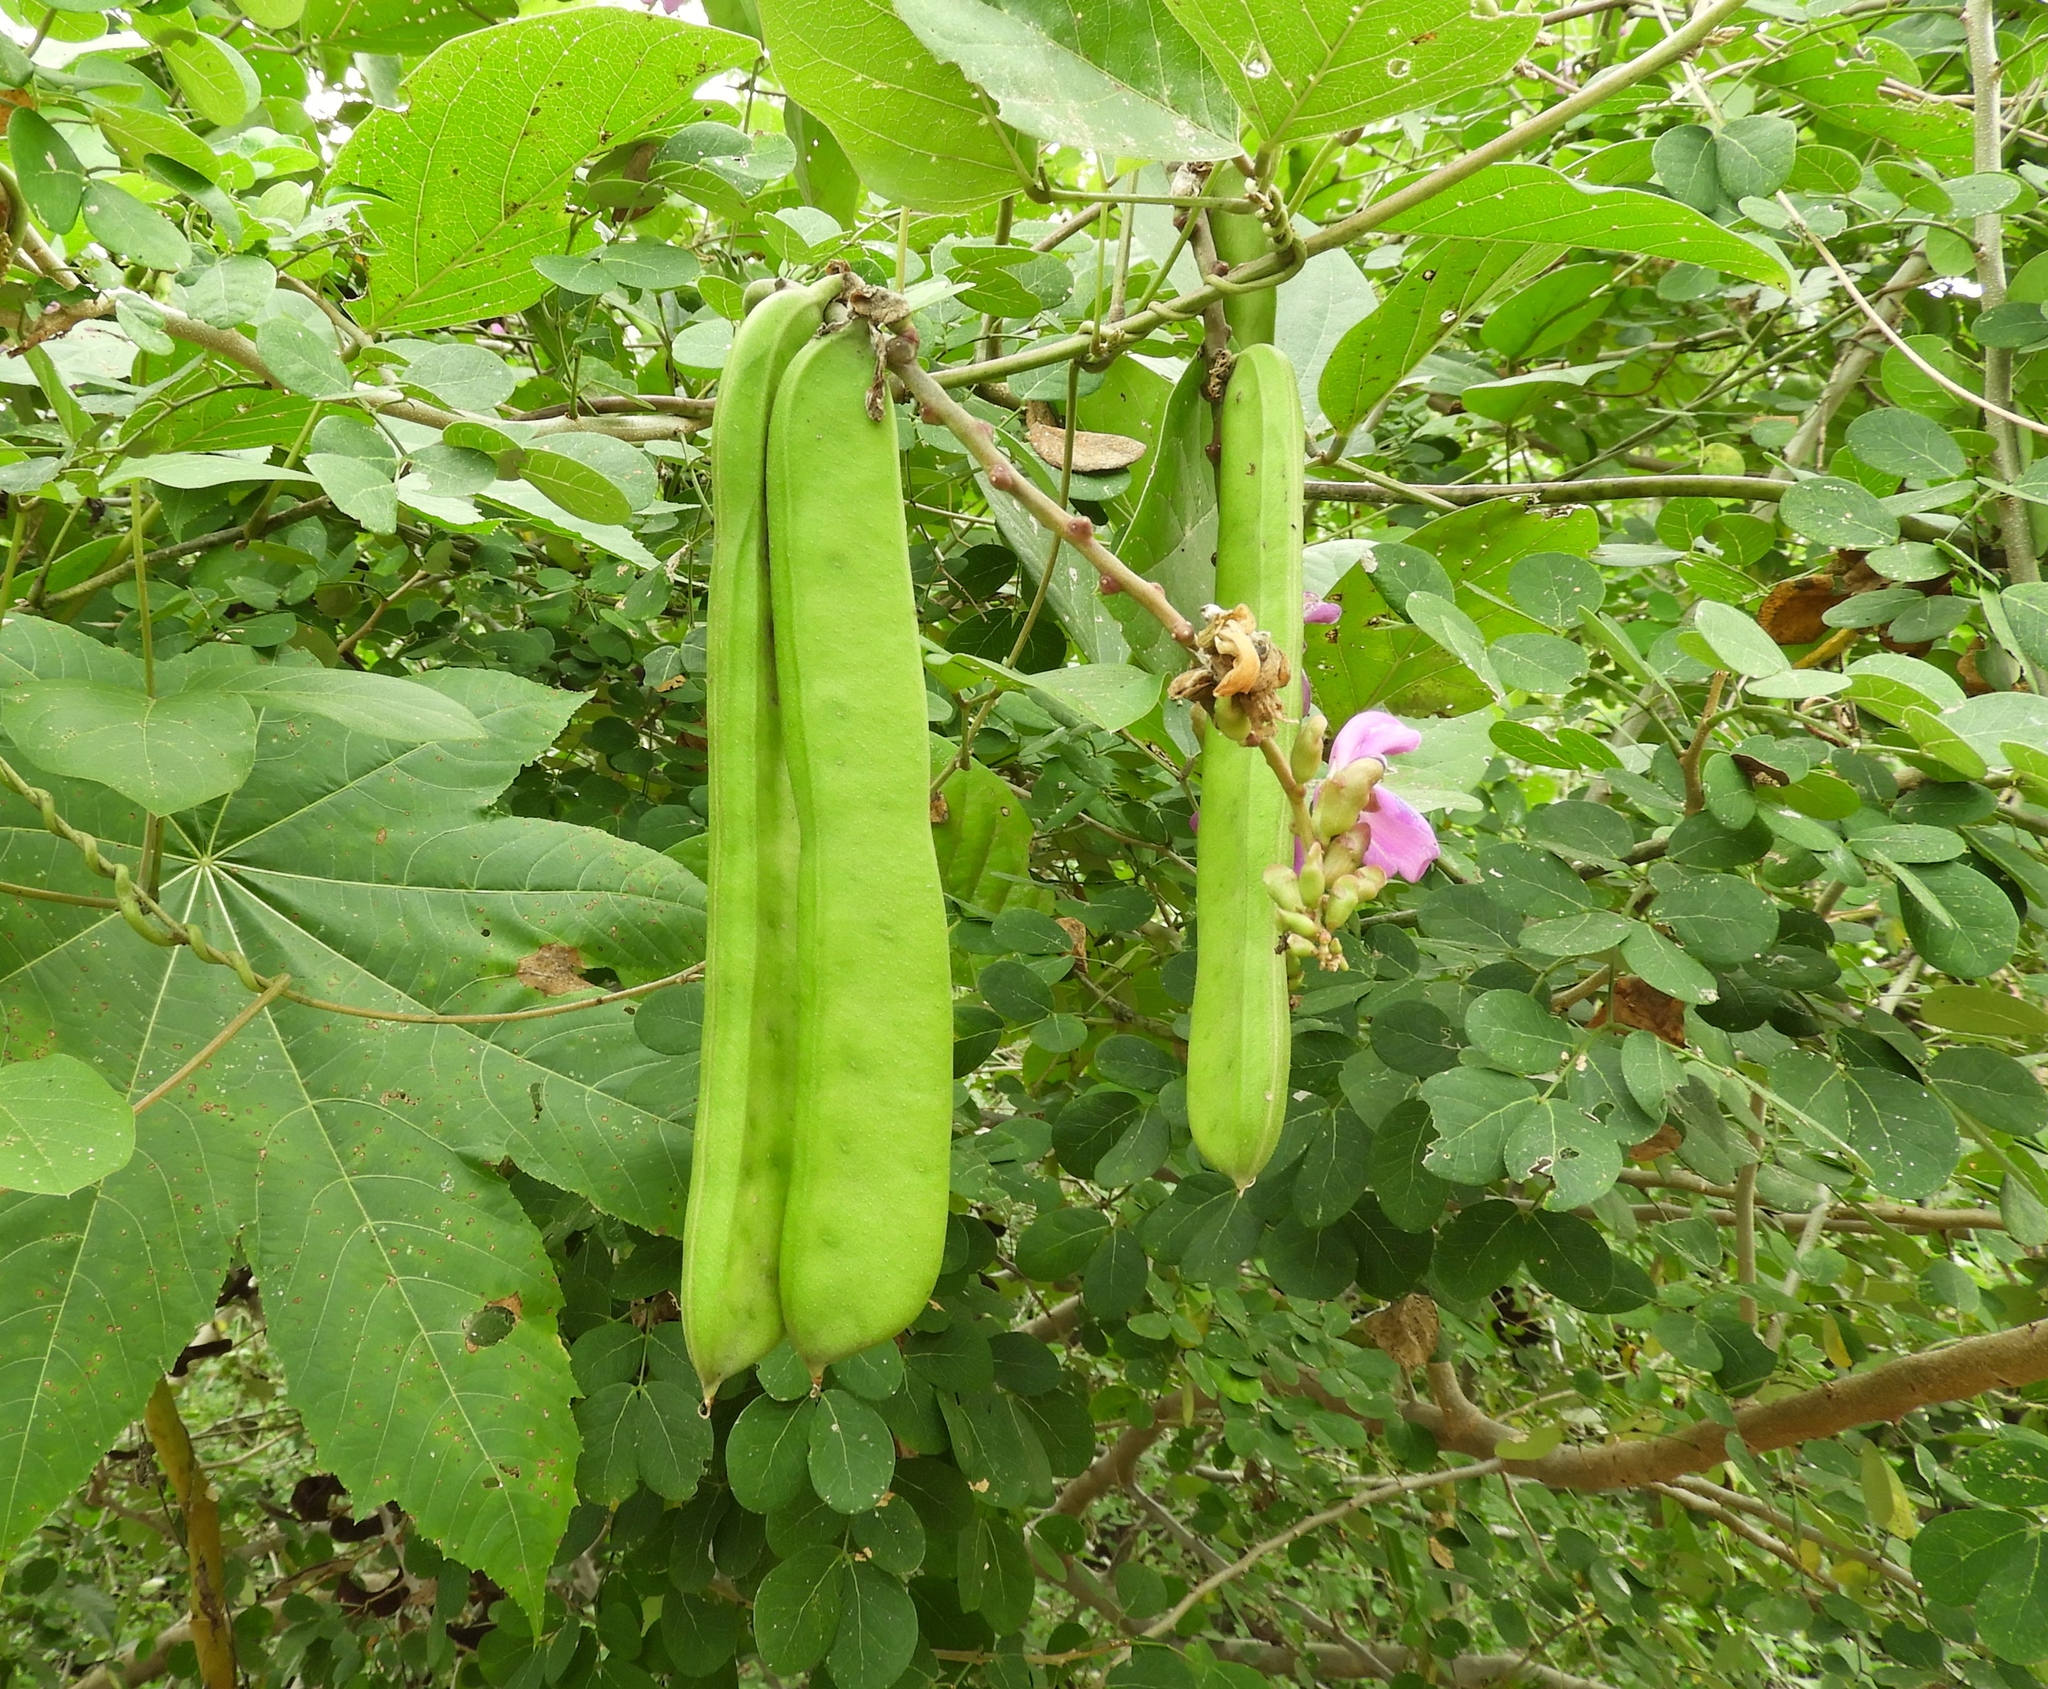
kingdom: Plantae
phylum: Tracheophyta
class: Magnoliopsida
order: Fabales
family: Fabaceae
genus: Canavalia
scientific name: Canavalia rosea
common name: Beach-bean
